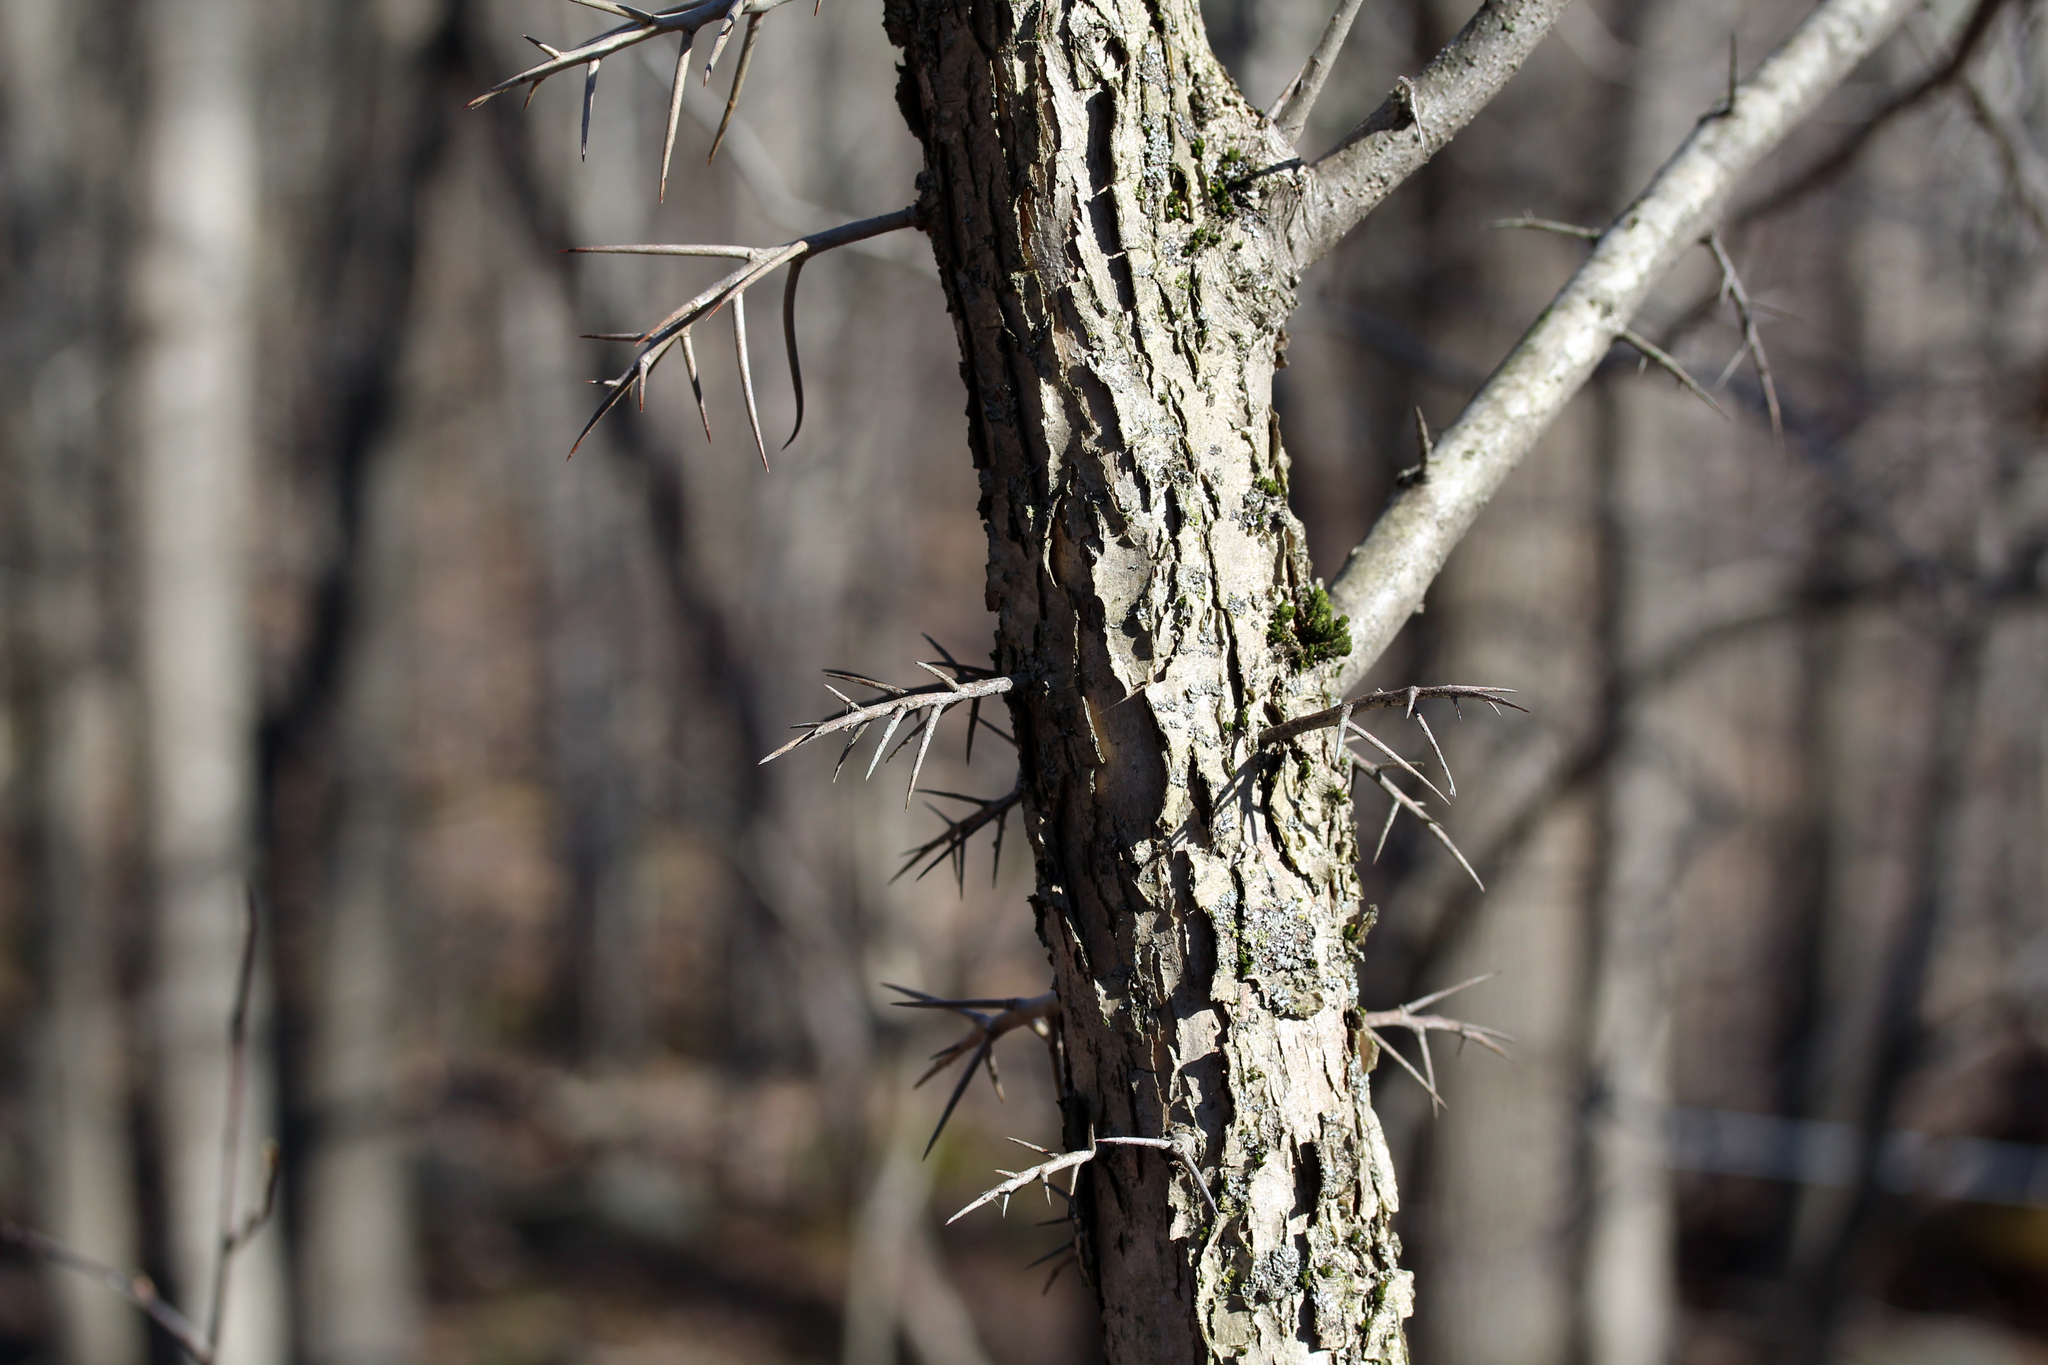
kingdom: Plantae
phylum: Tracheophyta
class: Magnoliopsida
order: Rosales
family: Rosaceae
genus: Crataegus
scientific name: Crataegus
